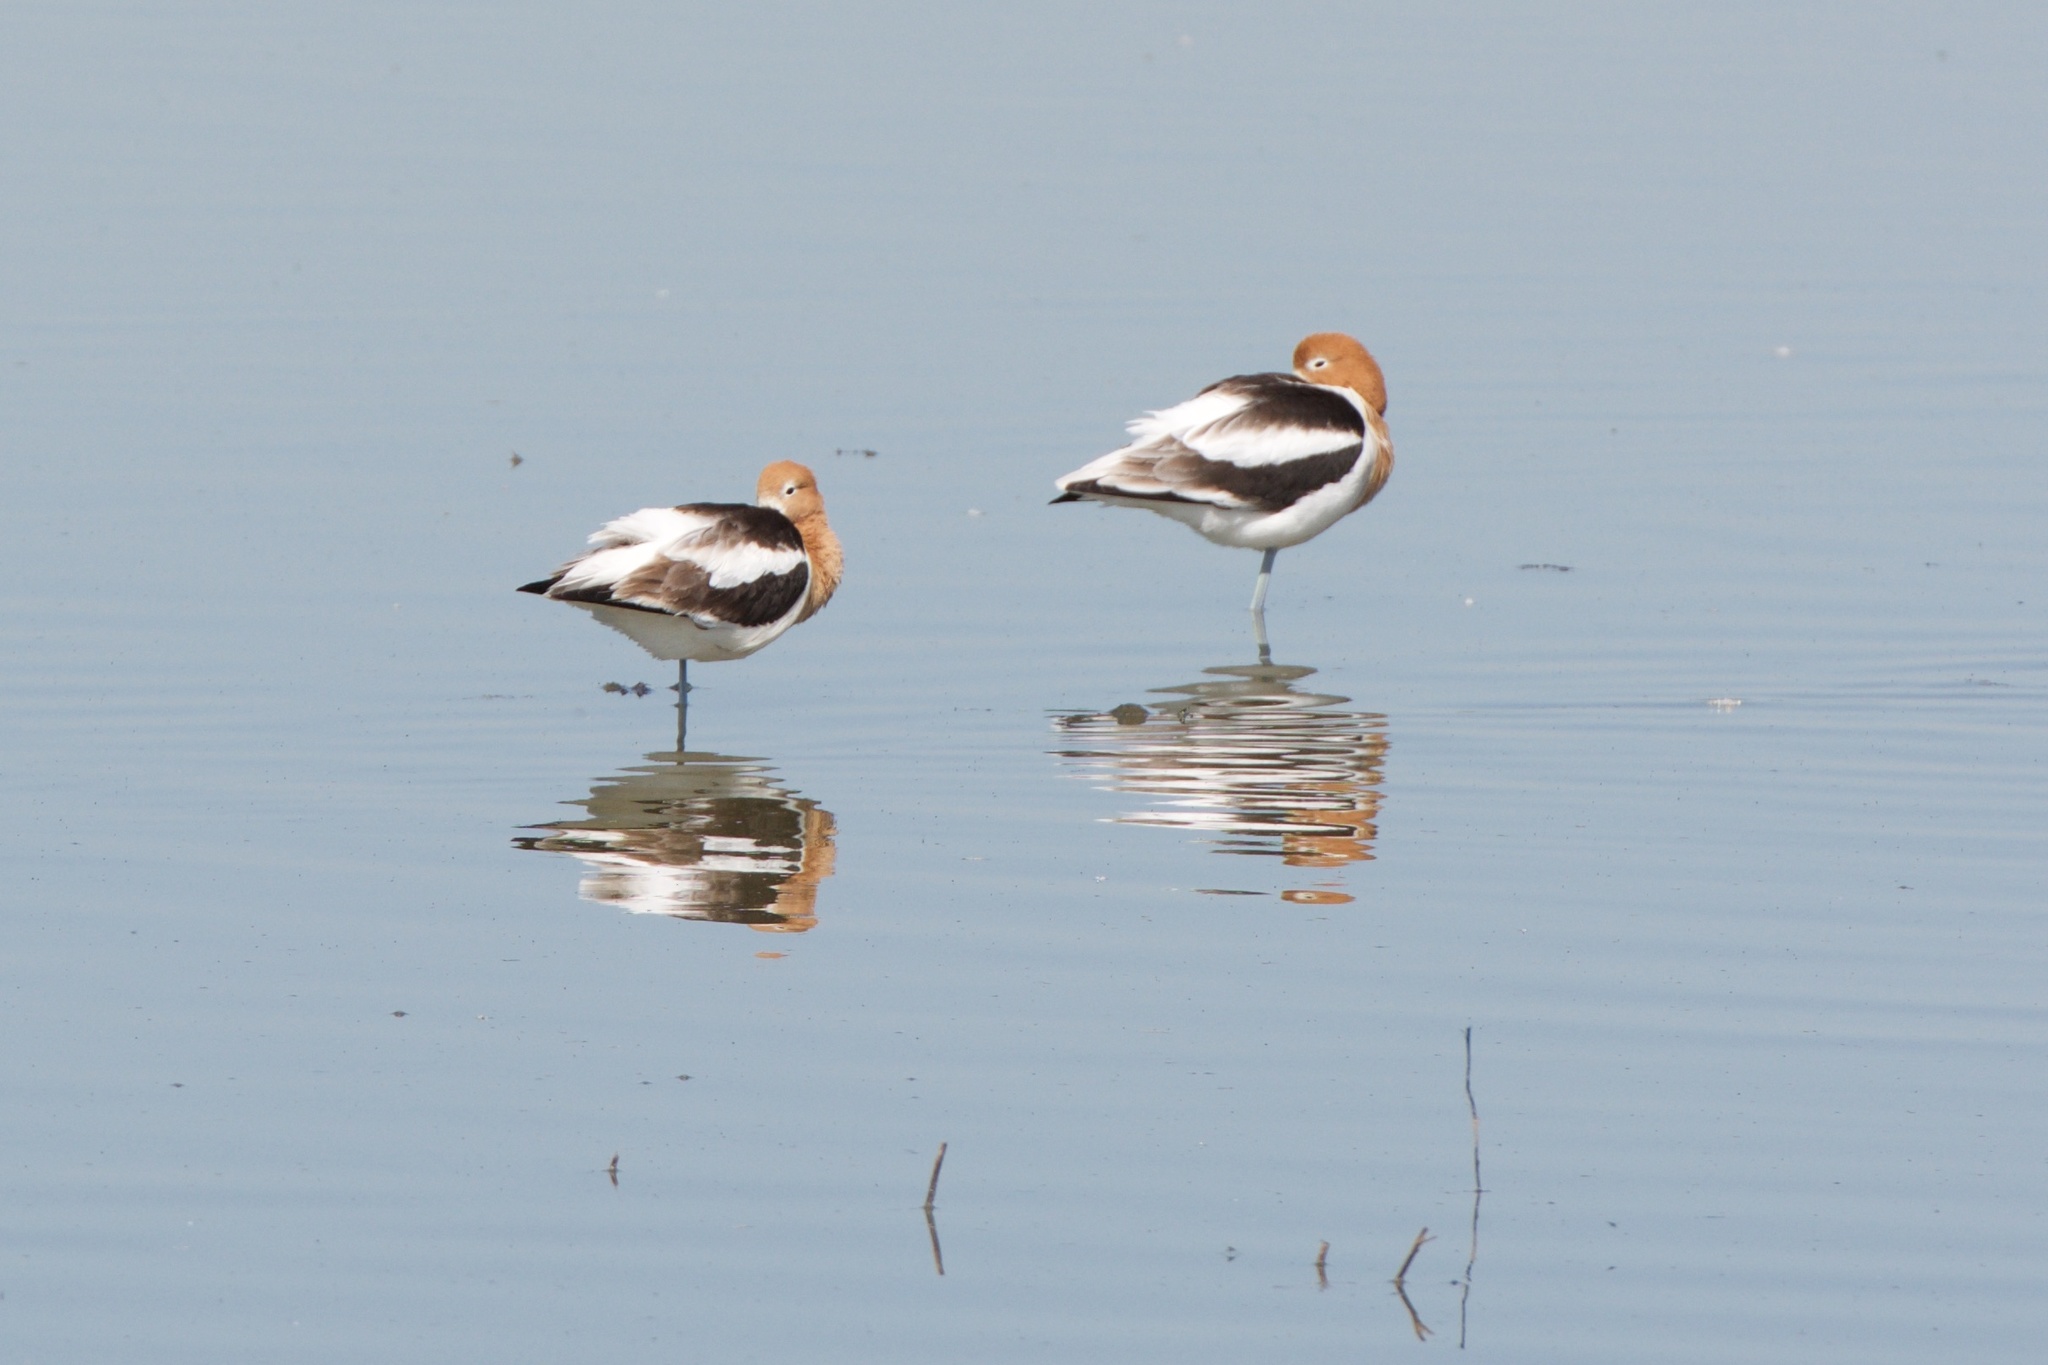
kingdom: Animalia
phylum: Chordata
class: Aves
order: Charadriiformes
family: Recurvirostridae
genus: Recurvirostra
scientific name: Recurvirostra americana
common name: American avocet
